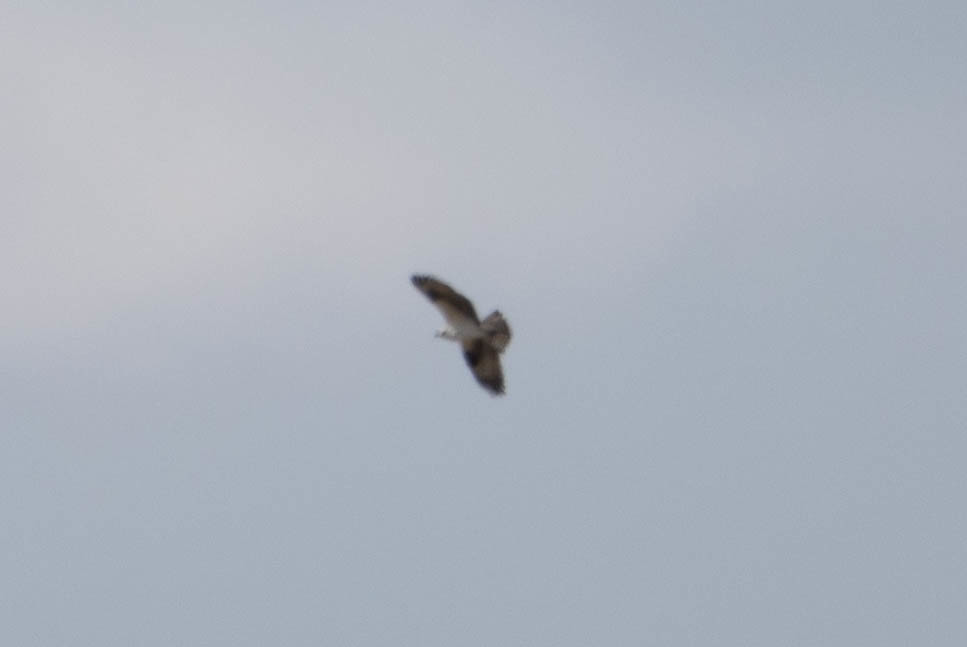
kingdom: Animalia
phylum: Chordata
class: Aves
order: Accipitriformes
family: Pandionidae
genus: Pandion
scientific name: Pandion haliaetus
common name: Osprey
